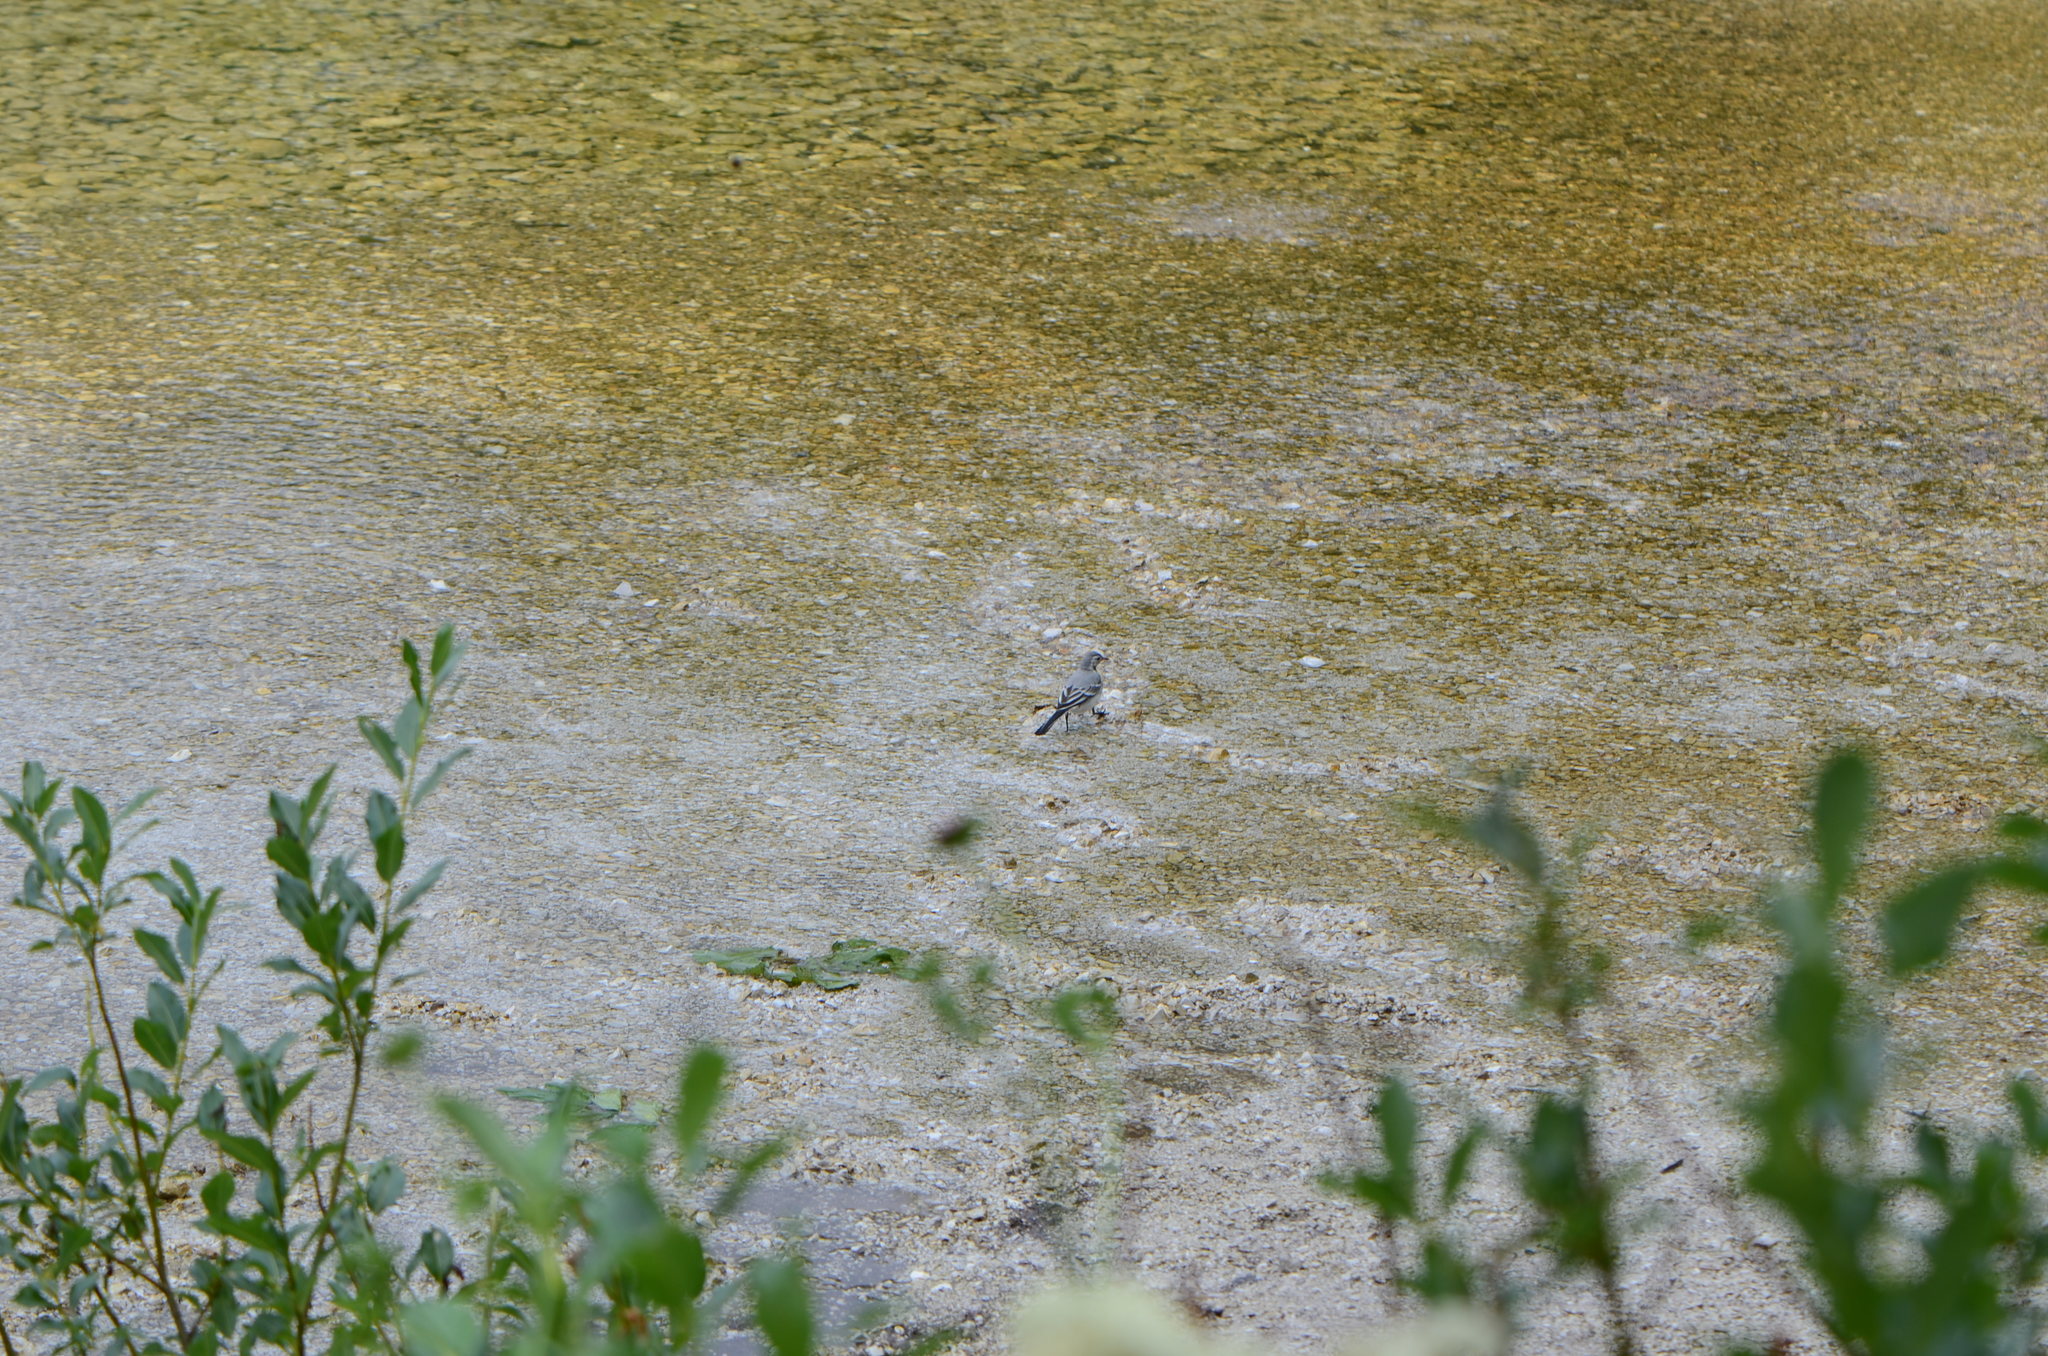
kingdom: Animalia
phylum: Chordata
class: Aves
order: Passeriformes
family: Motacillidae
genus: Motacilla
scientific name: Motacilla alba
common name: White wagtail
